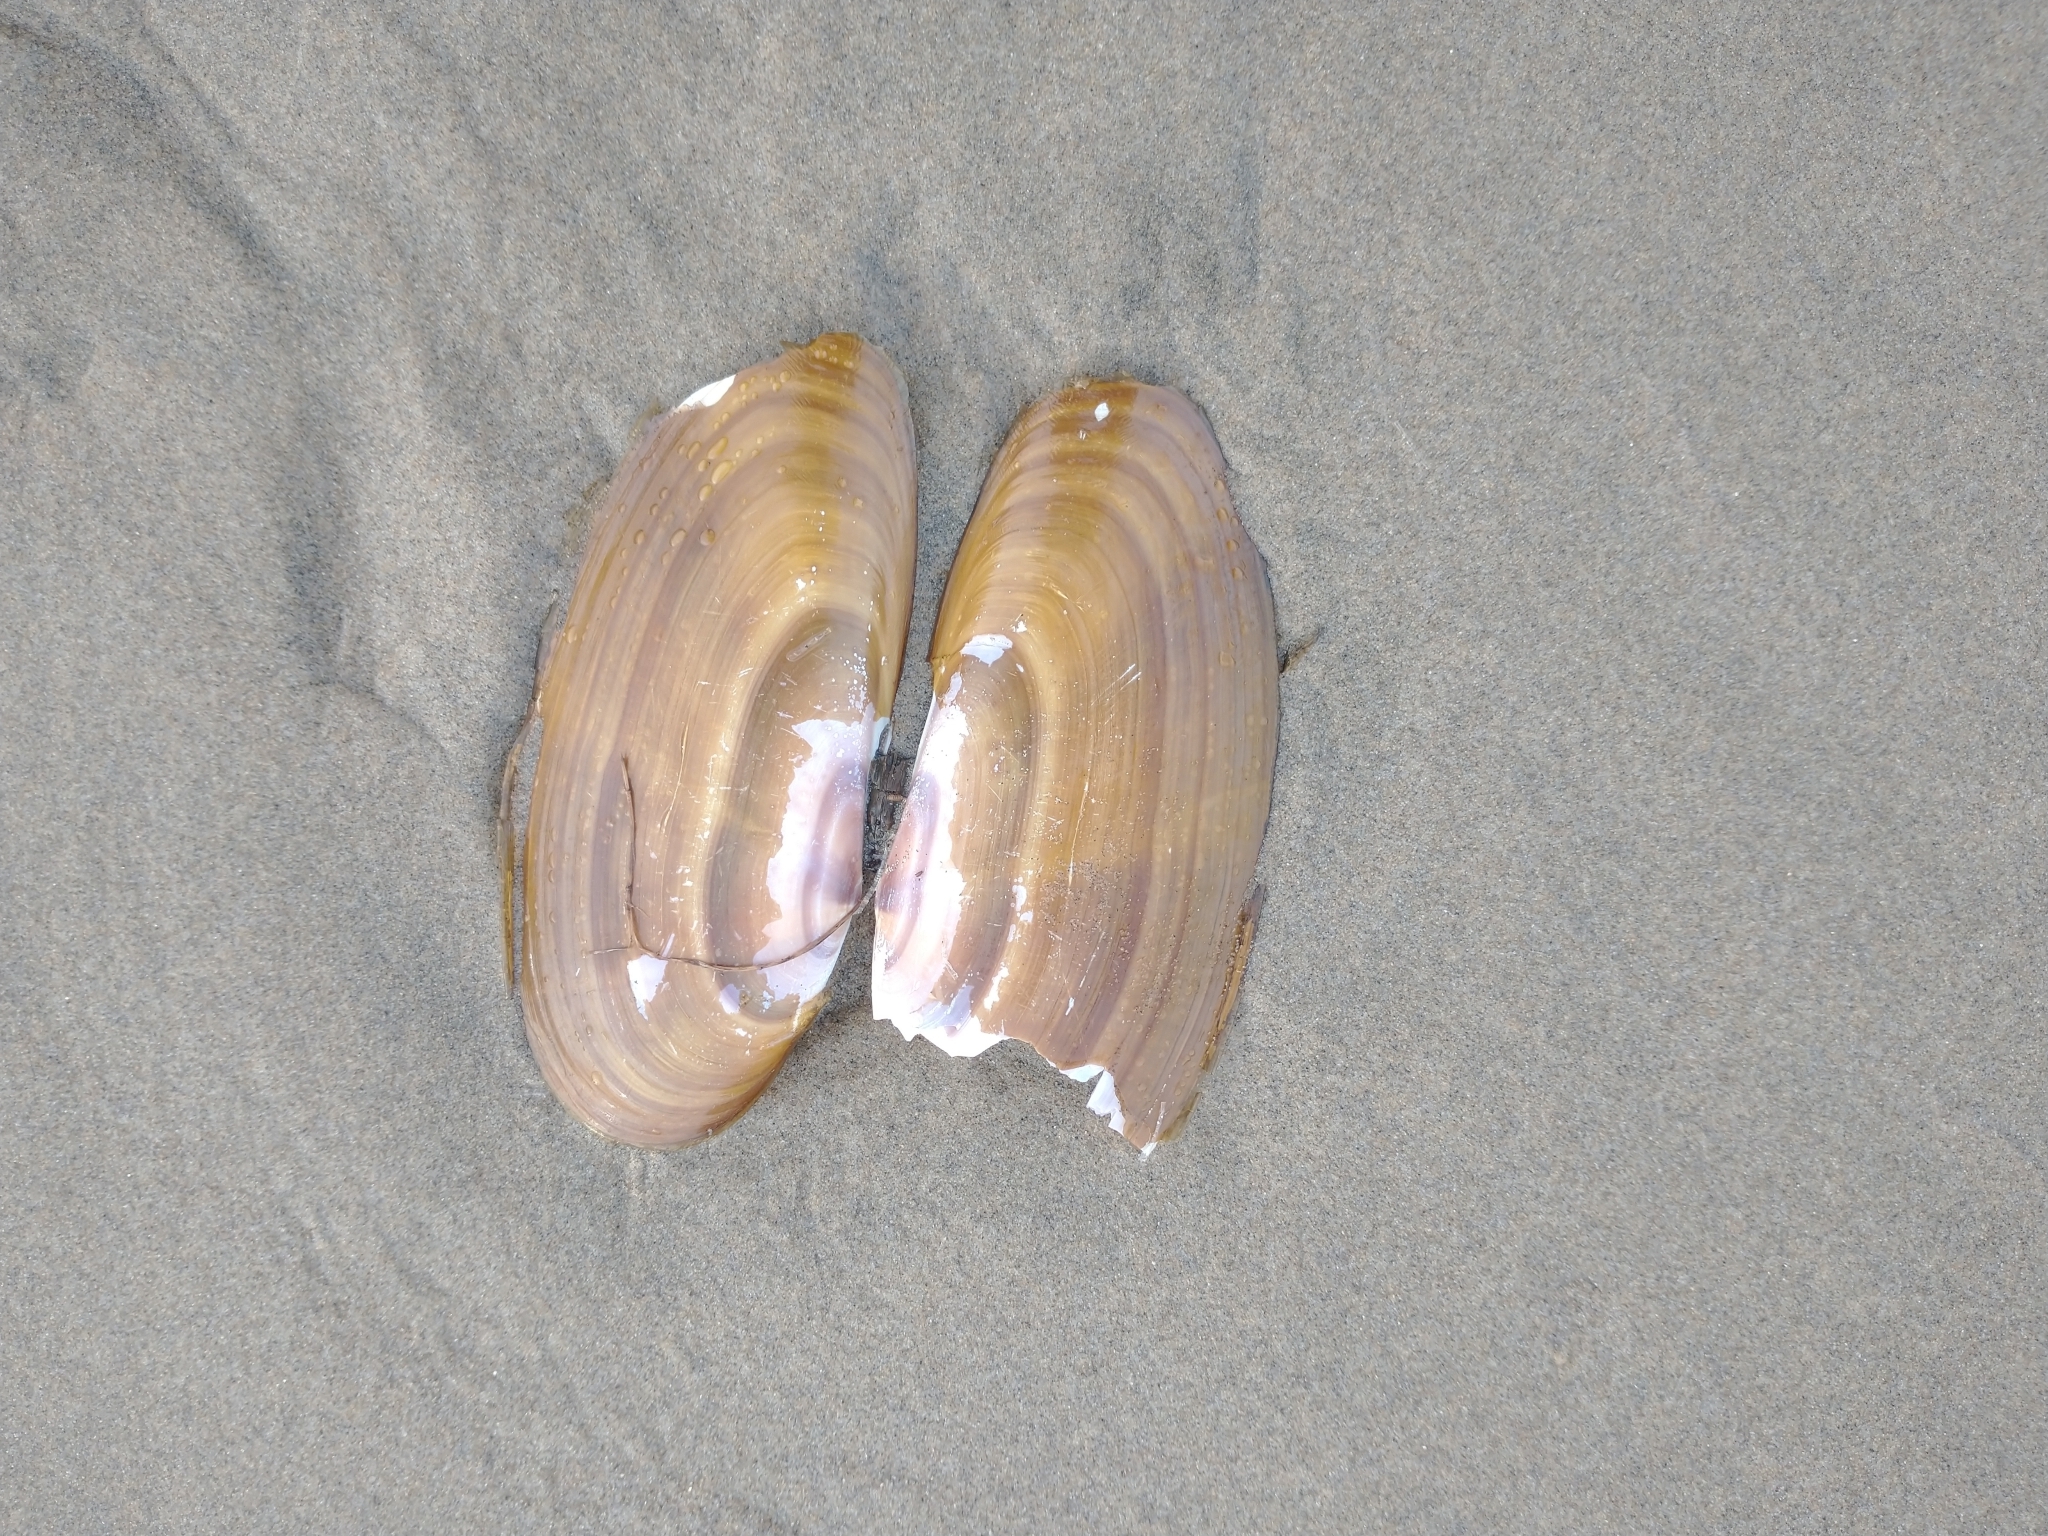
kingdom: Animalia
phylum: Mollusca
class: Bivalvia
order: Adapedonta
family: Pharidae
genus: Siliqua
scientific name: Siliqua patula
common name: Pacific razor clam
